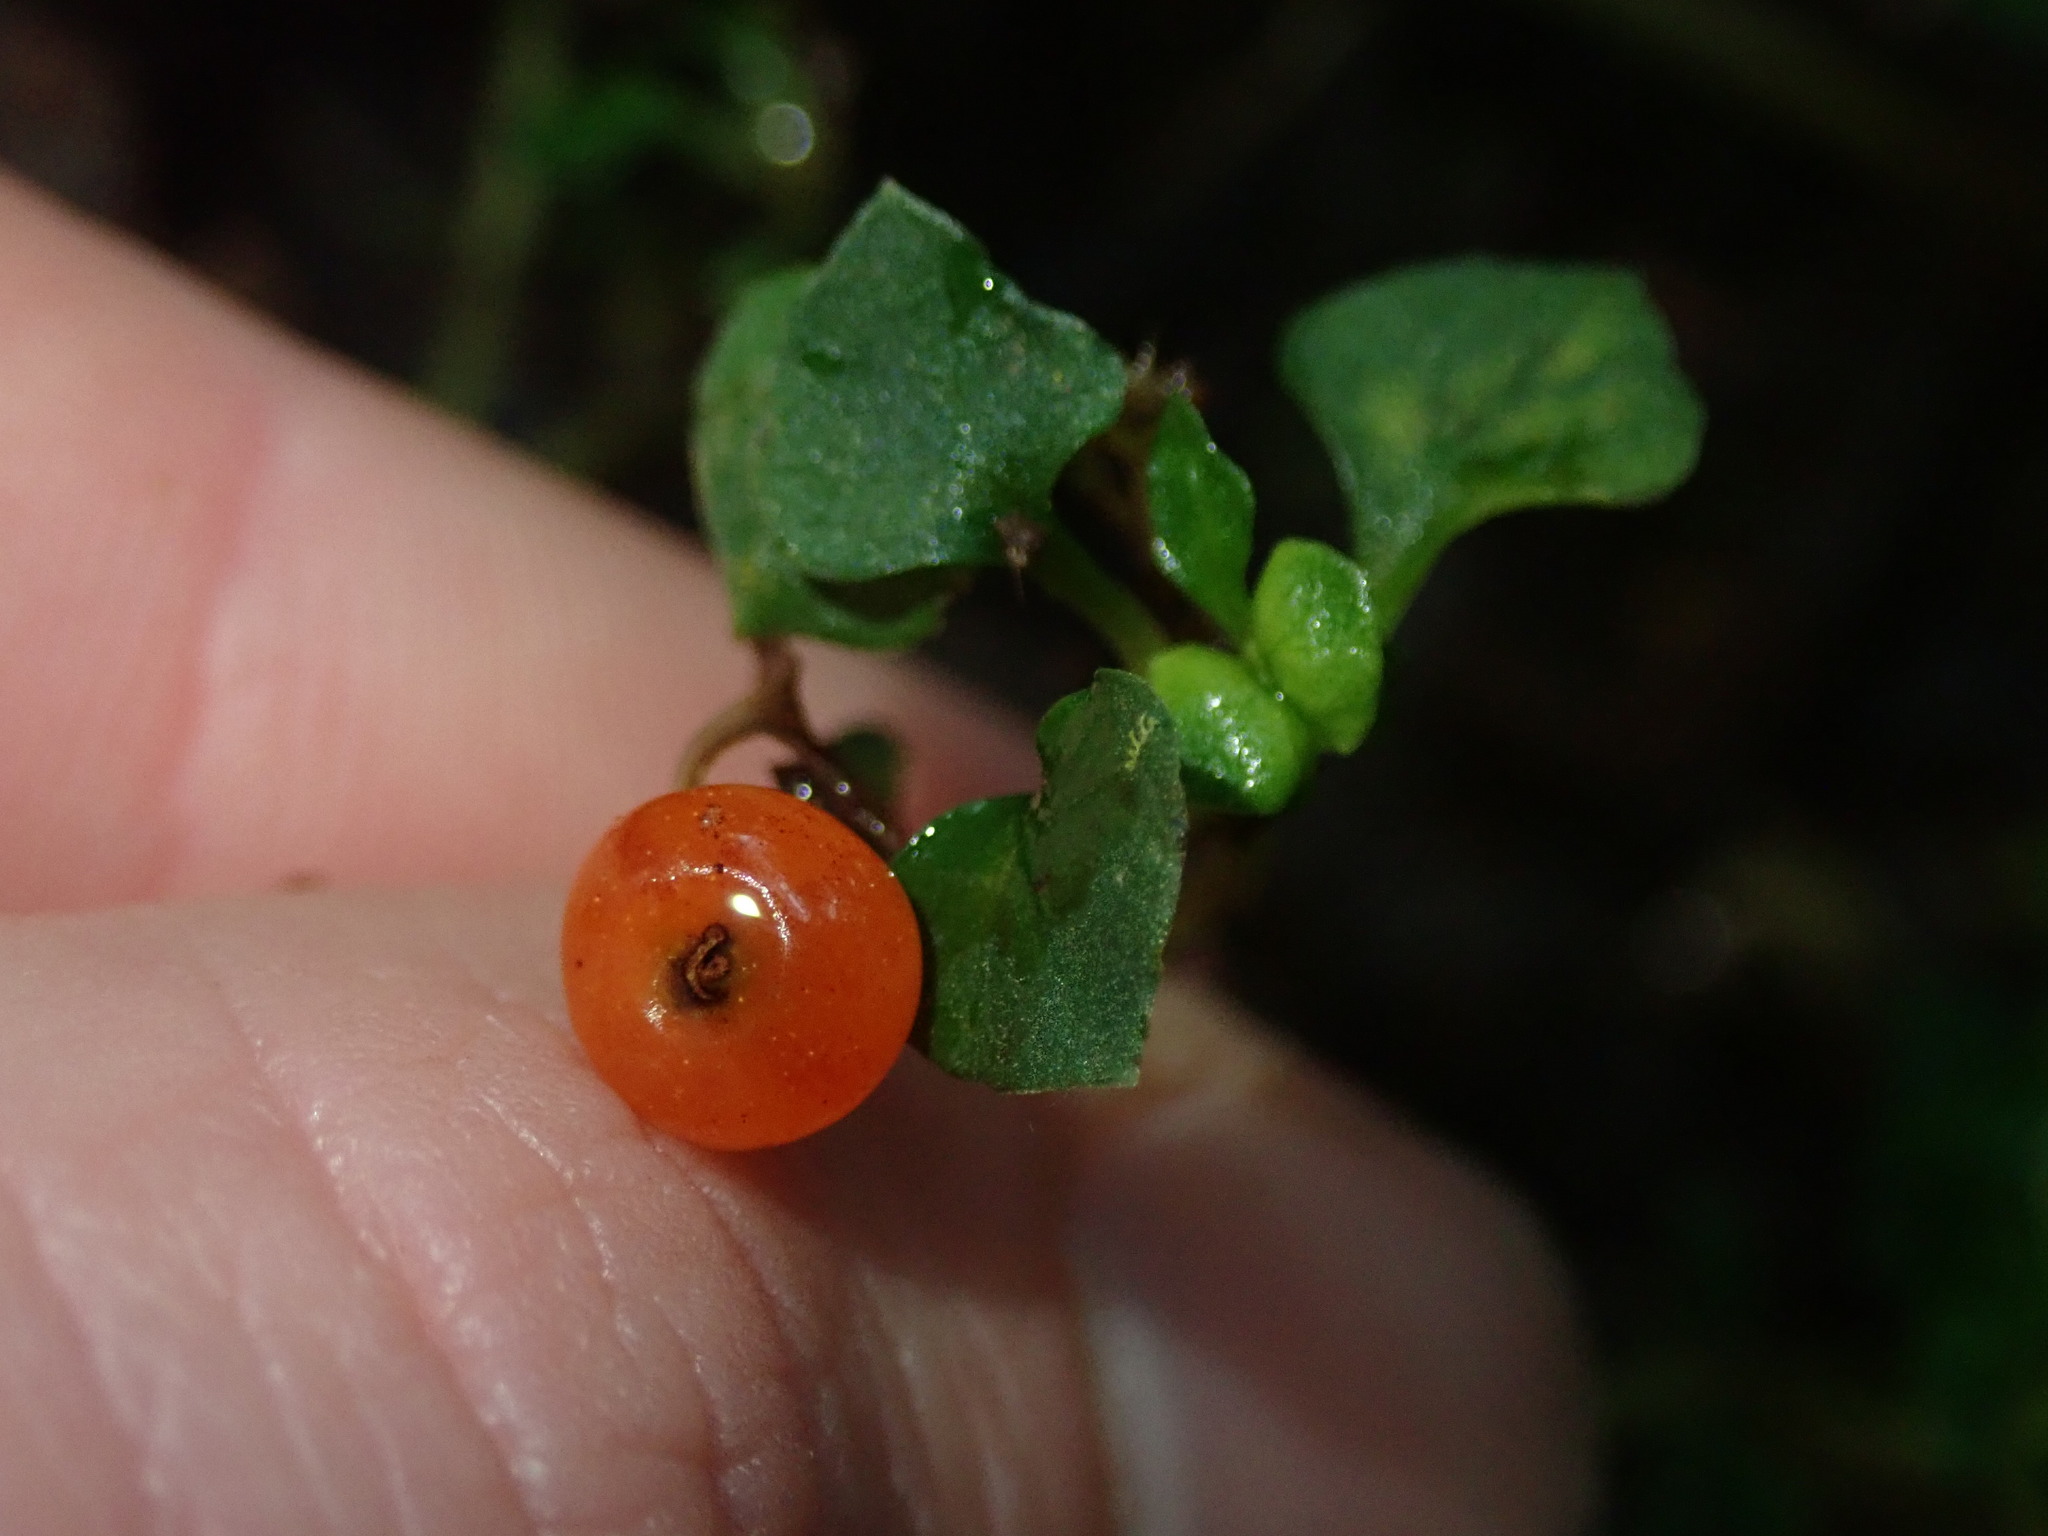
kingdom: Plantae
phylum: Tracheophyta
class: Magnoliopsida
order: Gentianales
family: Rubiaceae
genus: Nertera
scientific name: Nertera granadensis
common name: Beadplant
